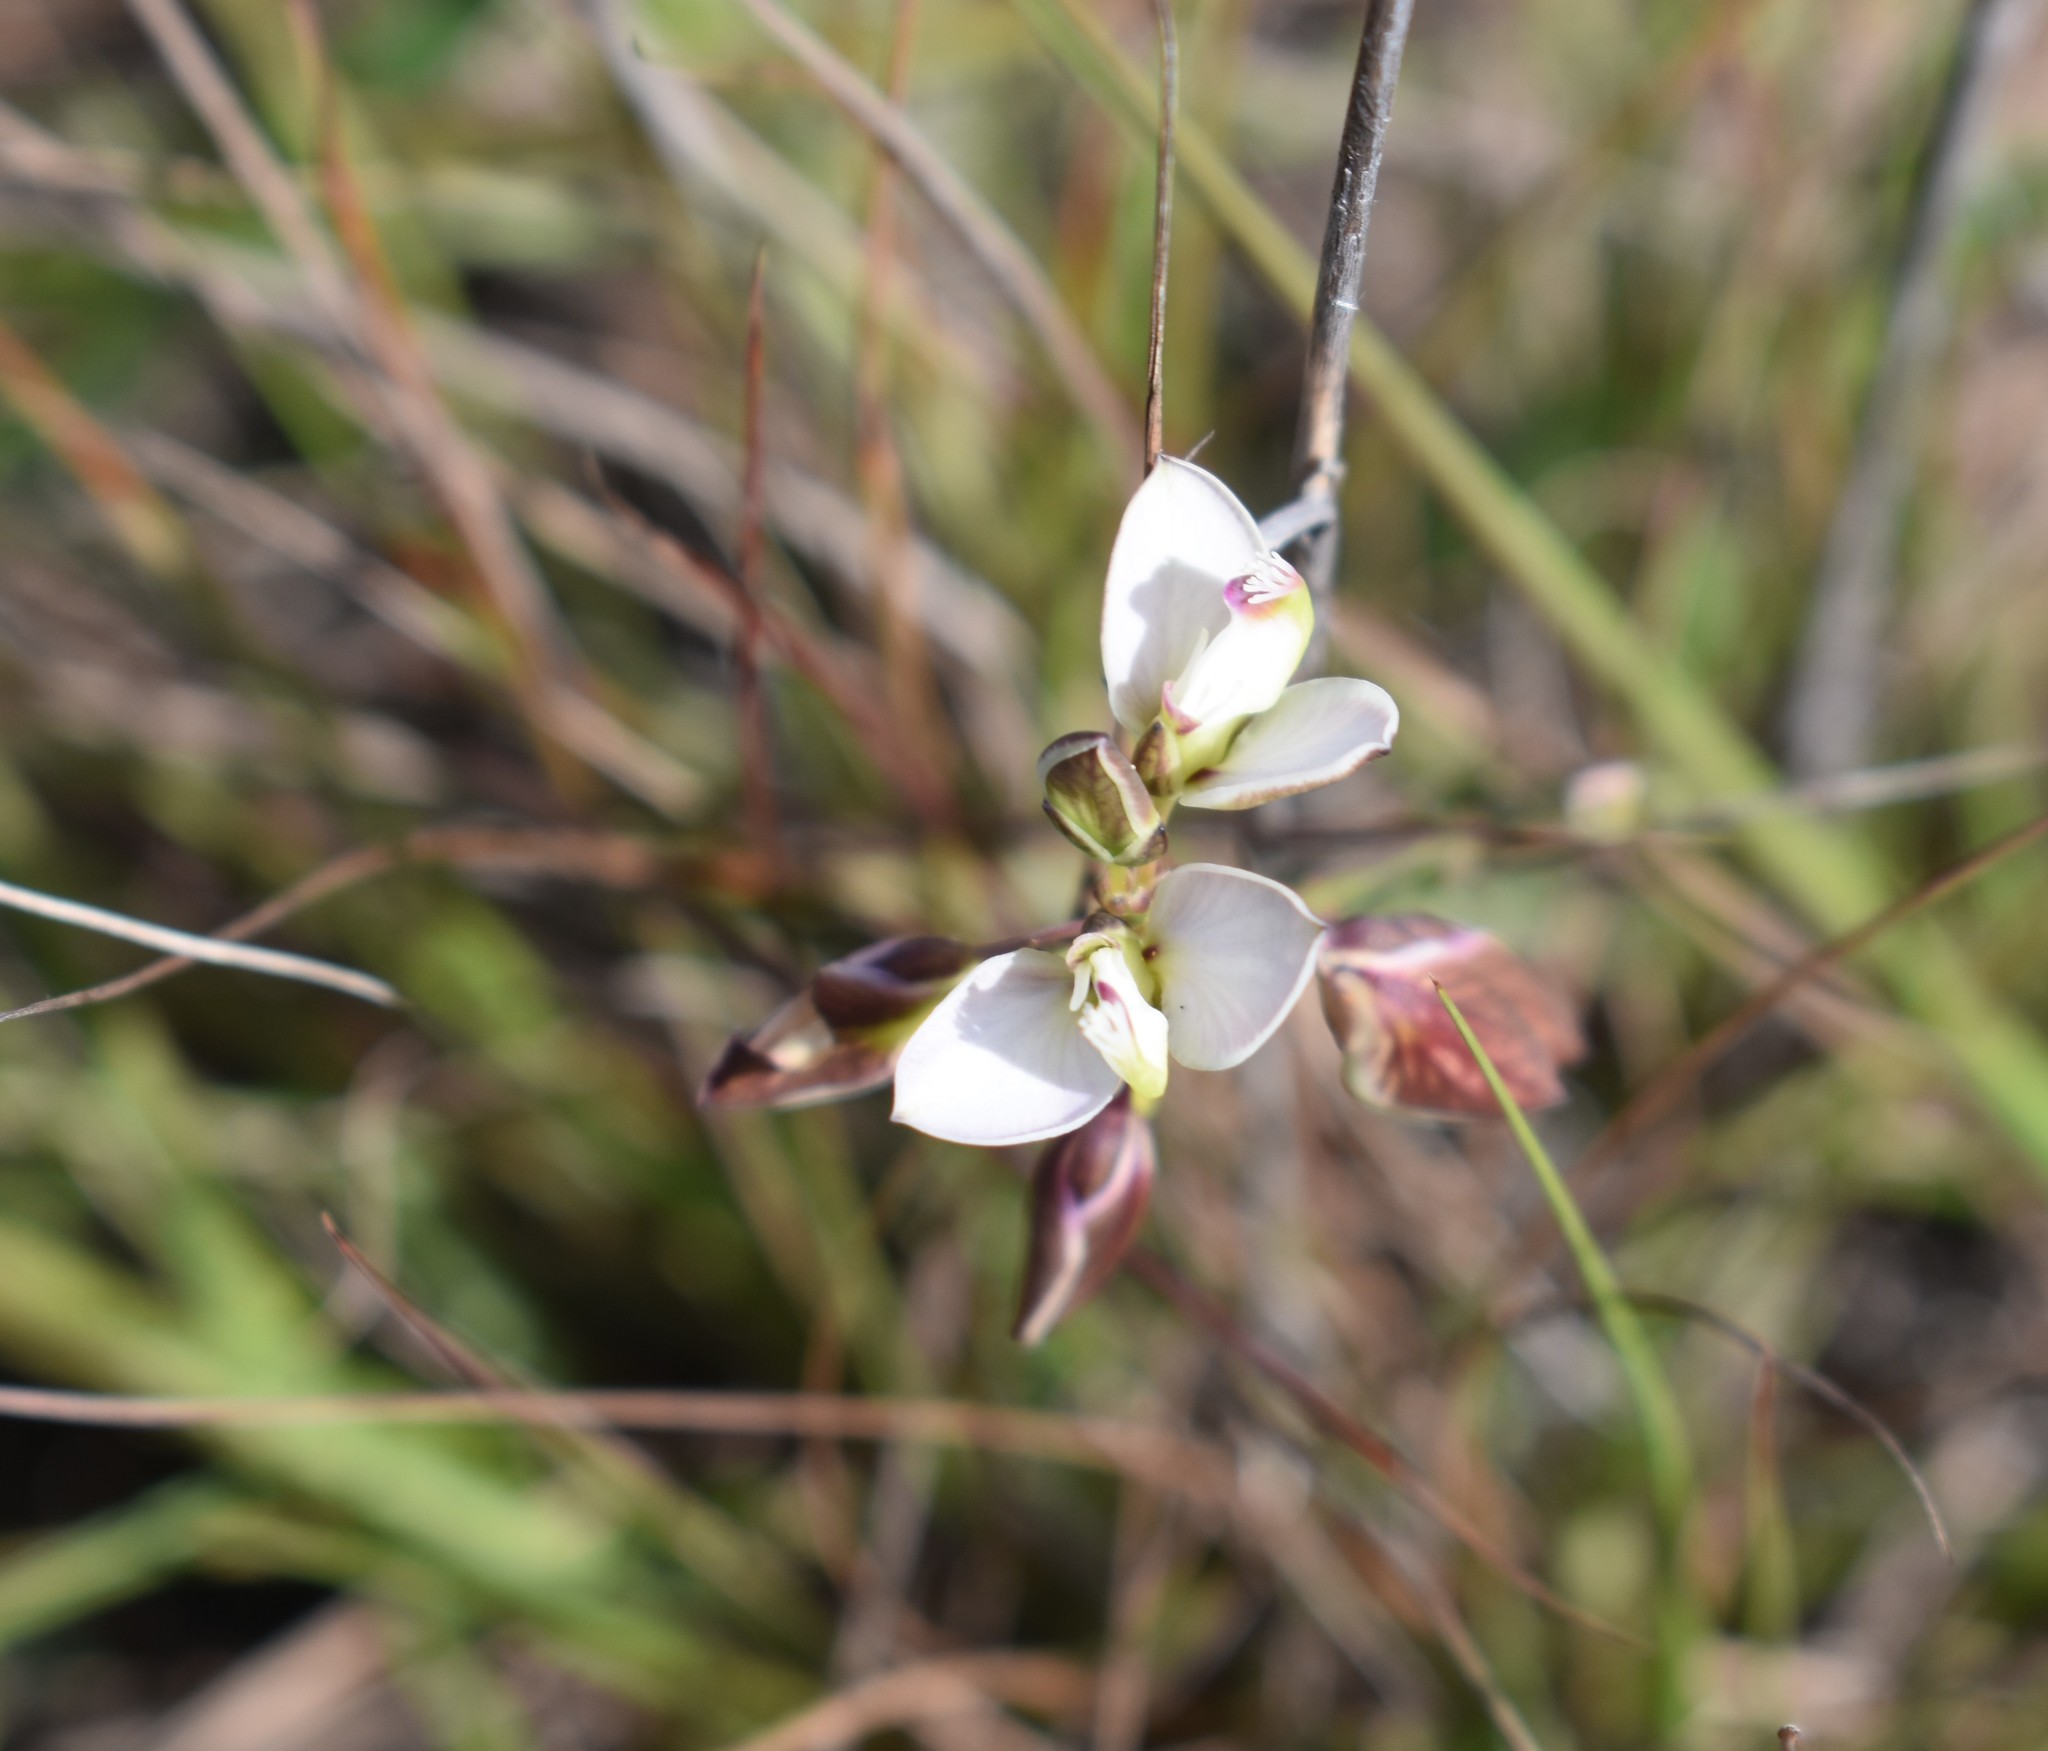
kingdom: Plantae
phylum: Tracheophyta
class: Magnoliopsida
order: Fabales
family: Polygalaceae
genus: Polygala
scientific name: Polygala microlopha
